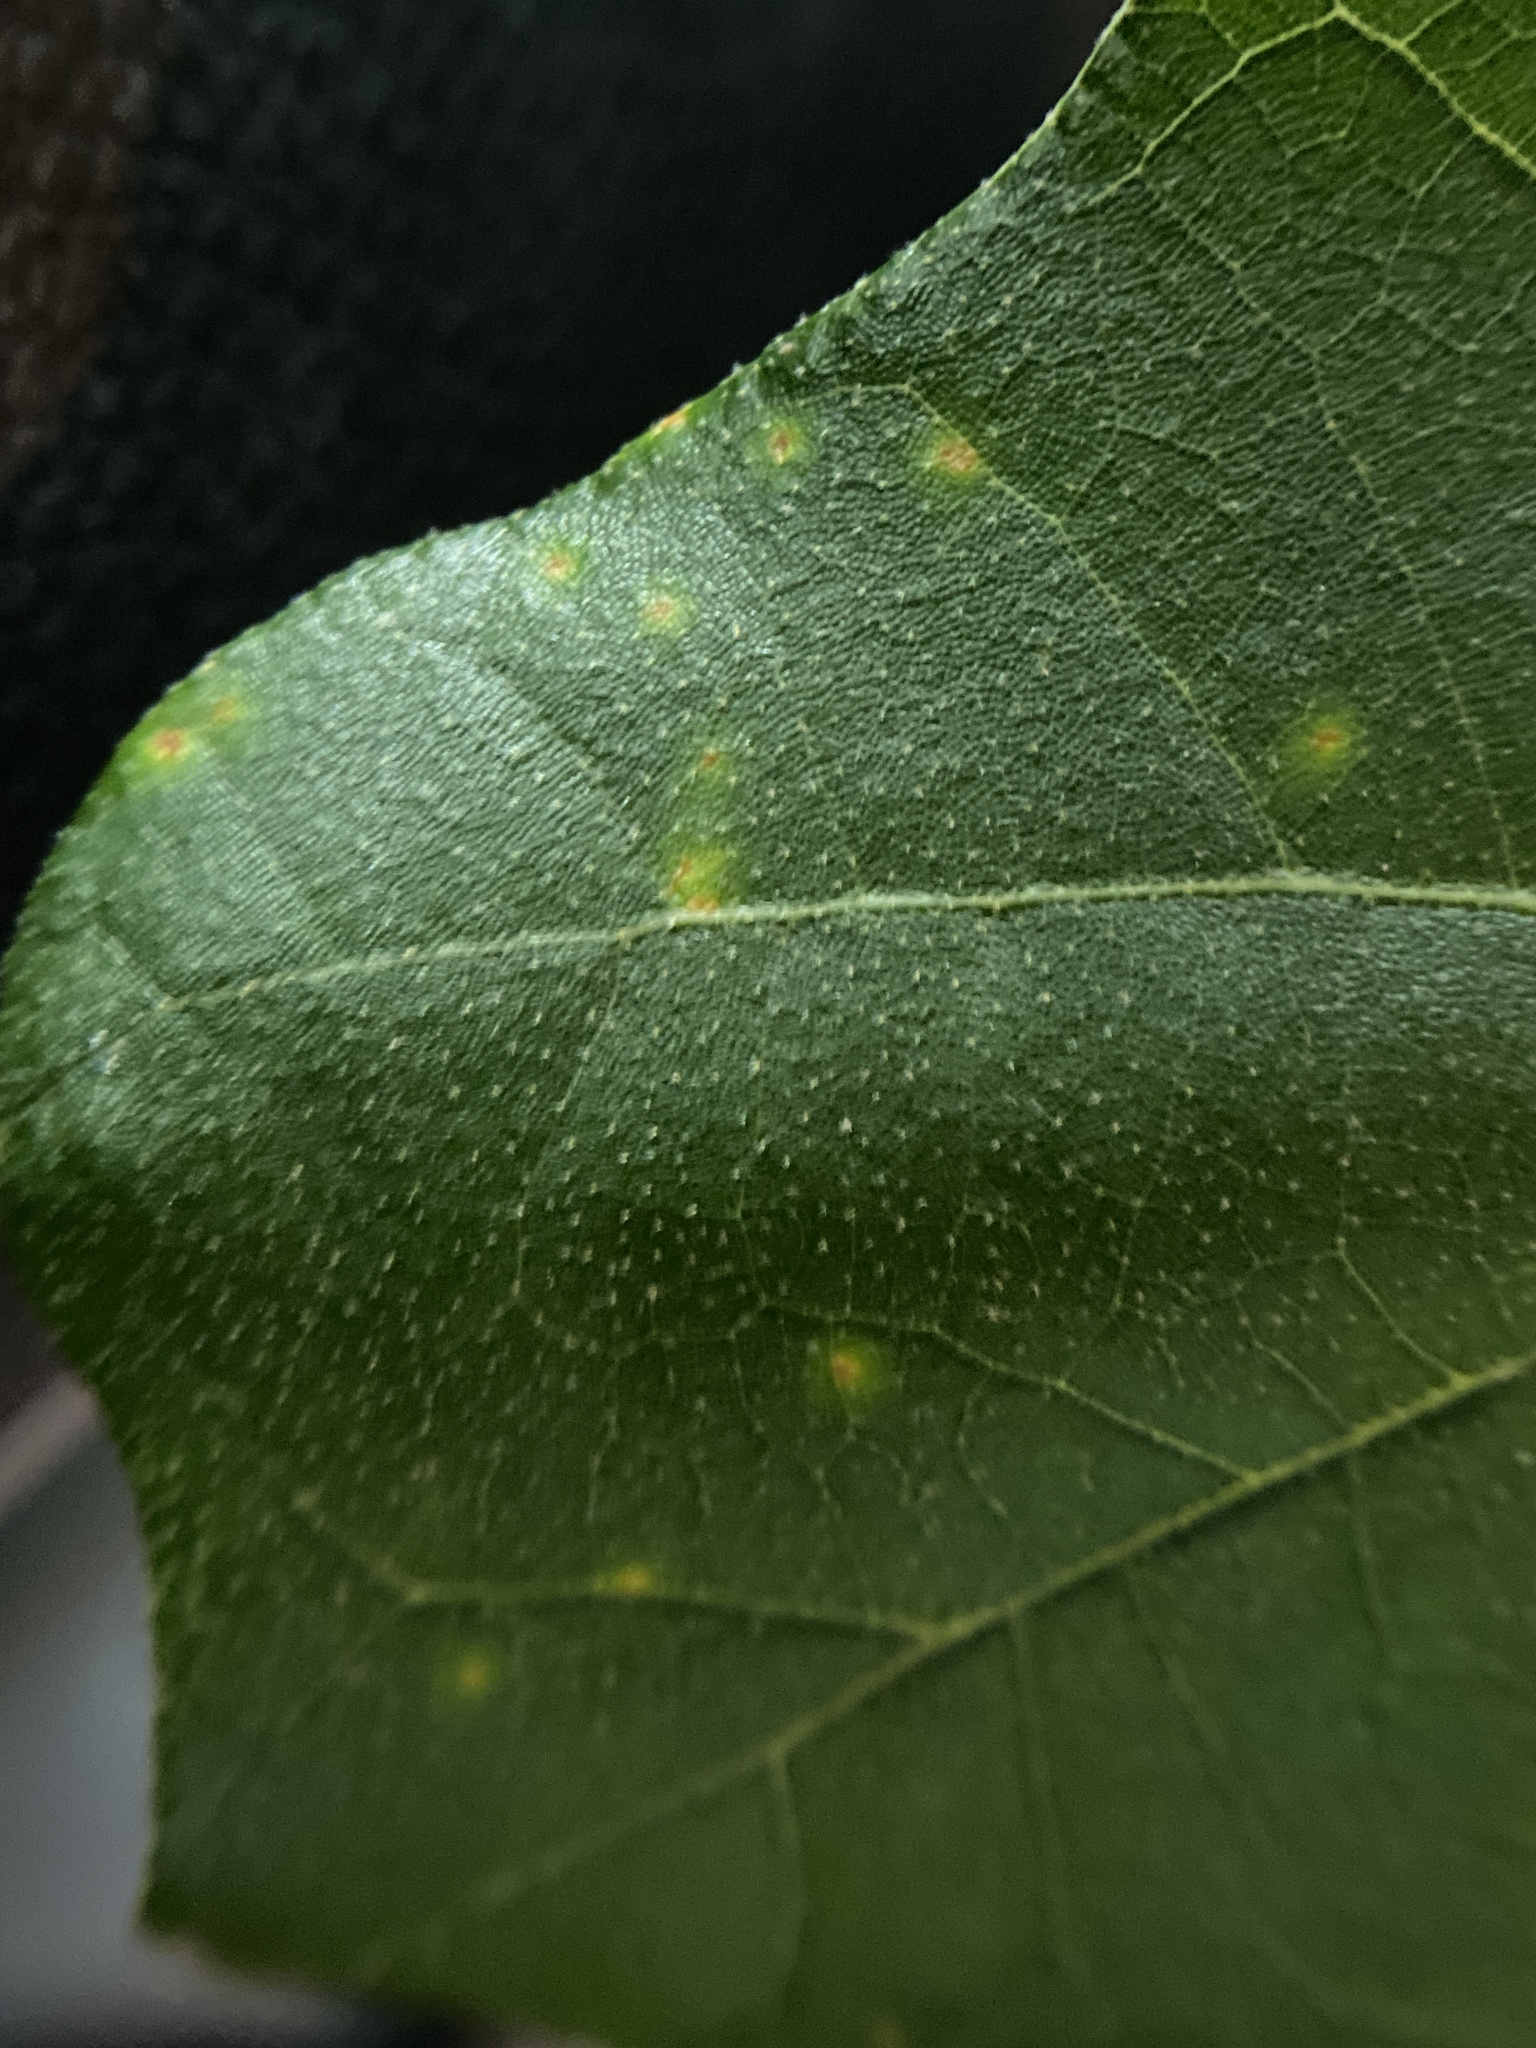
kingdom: Fungi
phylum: Basidiomycota
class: Pucciniomycetes
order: Pucciniales
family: Cronartiaceae
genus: Cronartium
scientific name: Cronartium quercuum
